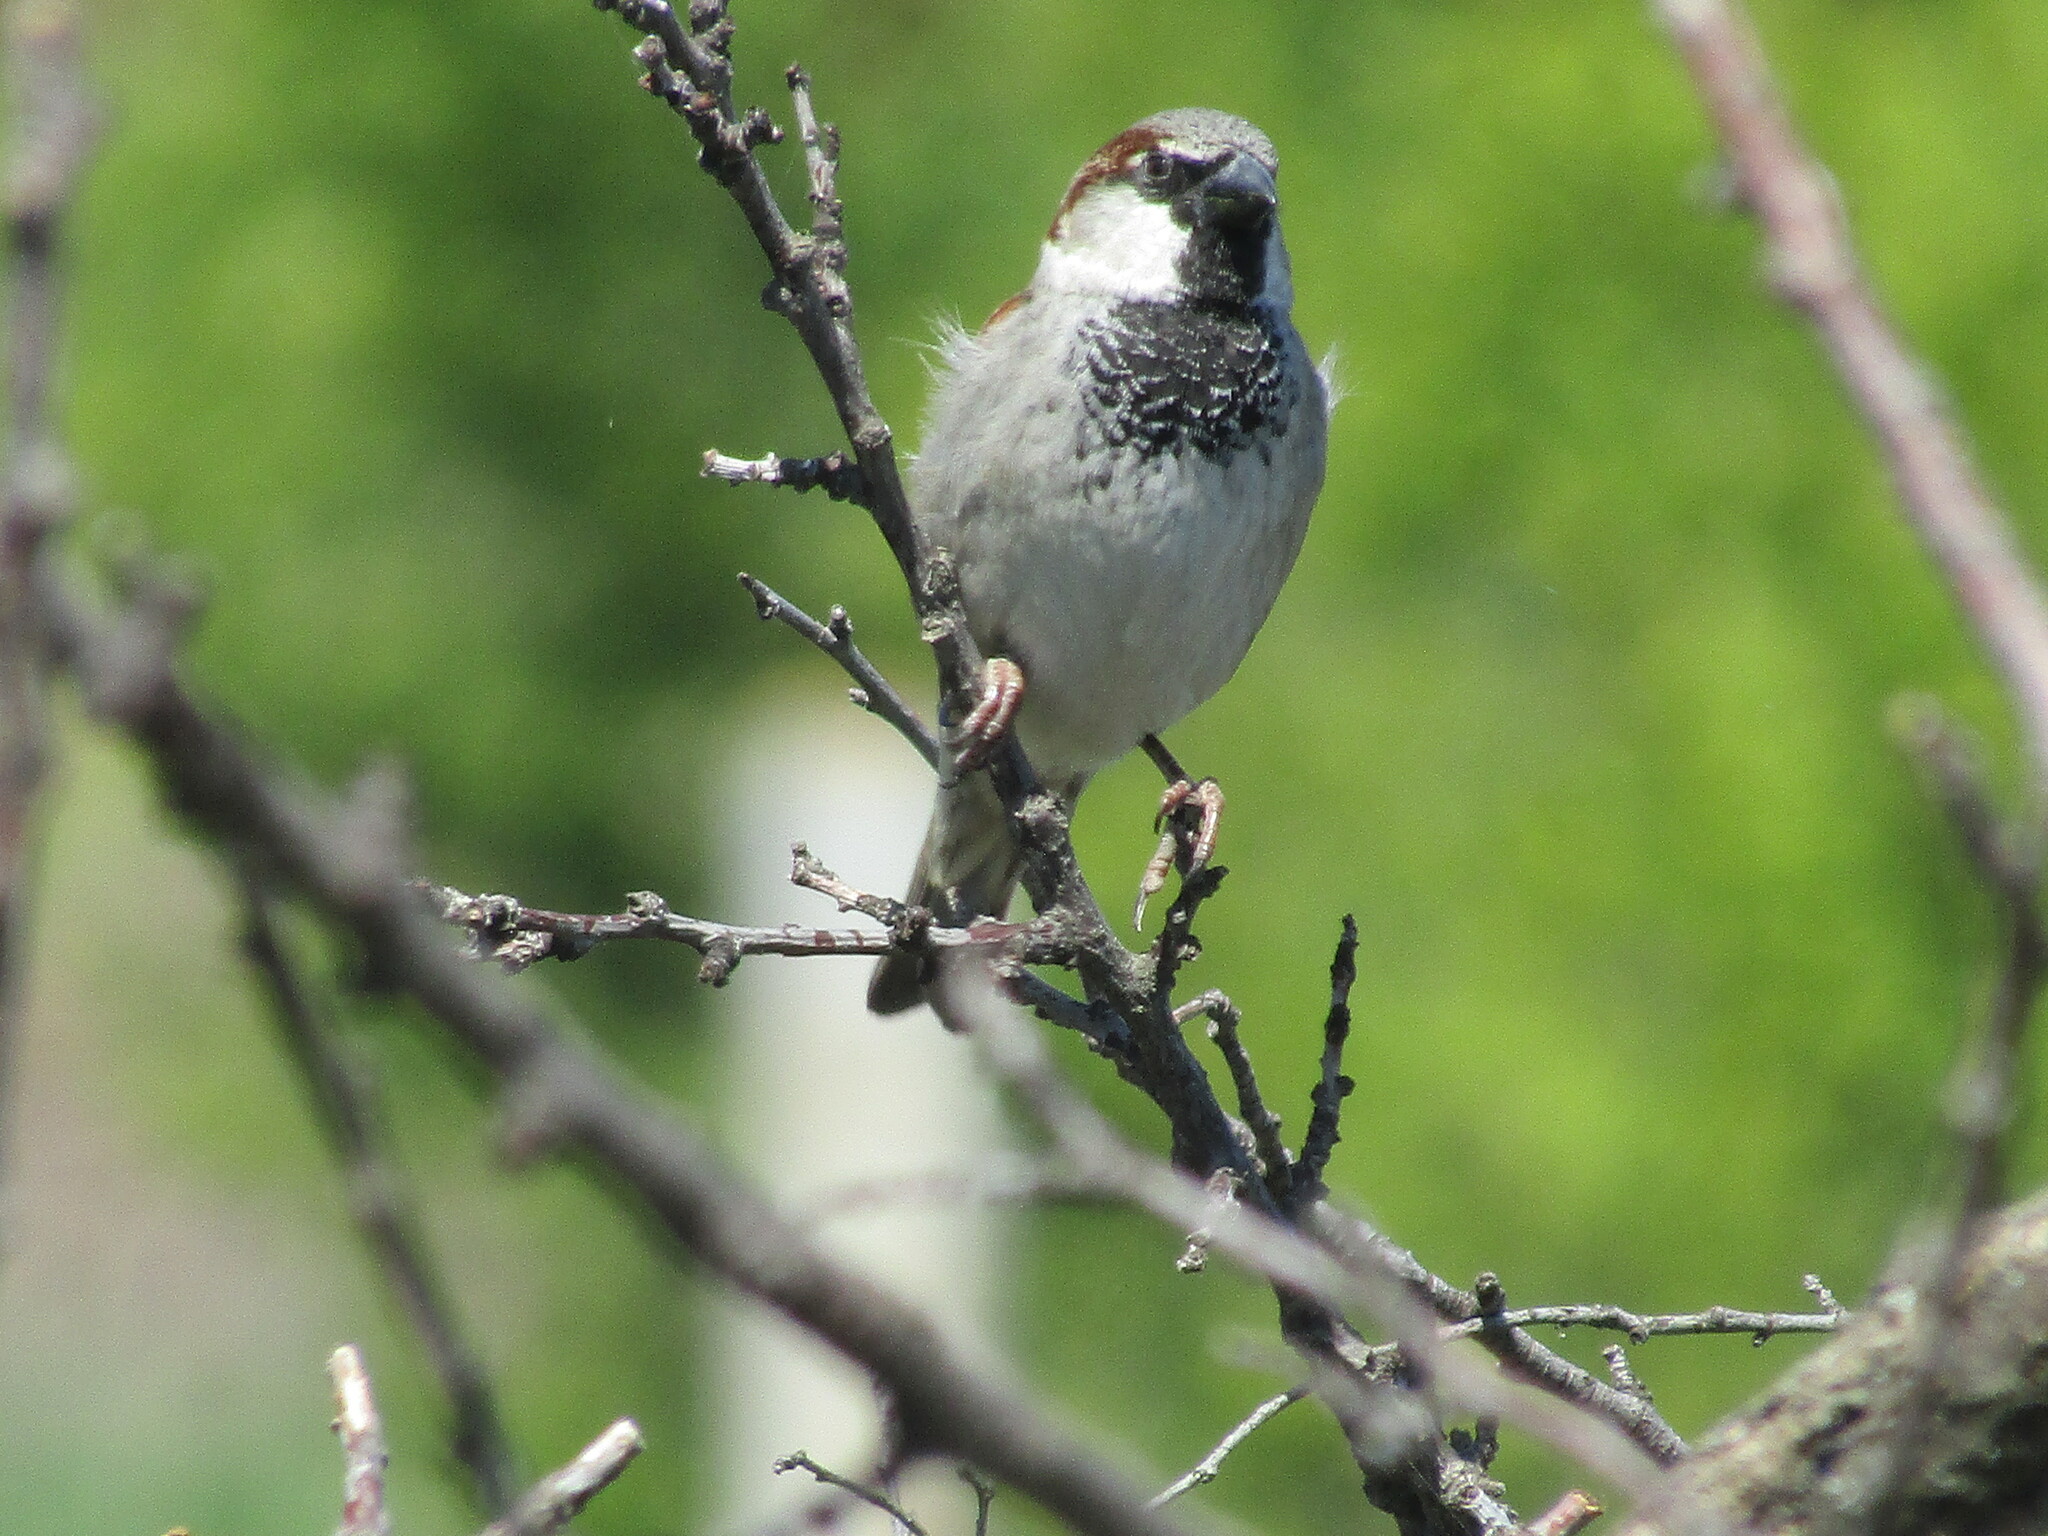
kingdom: Animalia
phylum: Chordata
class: Aves
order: Passeriformes
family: Passeridae
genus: Passer
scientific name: Passer domesticus
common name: House sparrow
